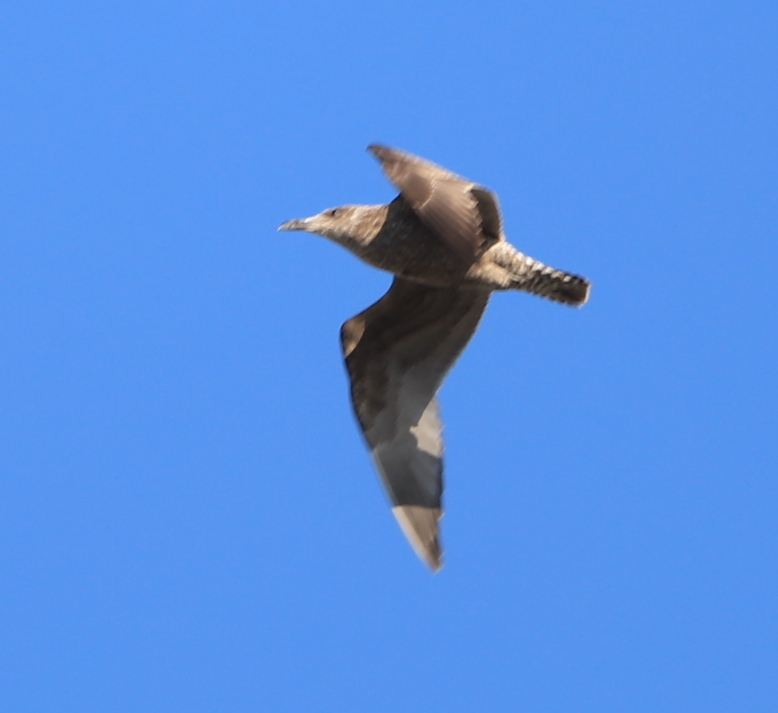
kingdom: Animalia
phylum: Chordata
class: Aves
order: Charadriiformes
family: Laridae
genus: Larus
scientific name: Larus argentatus
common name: Herring gull
